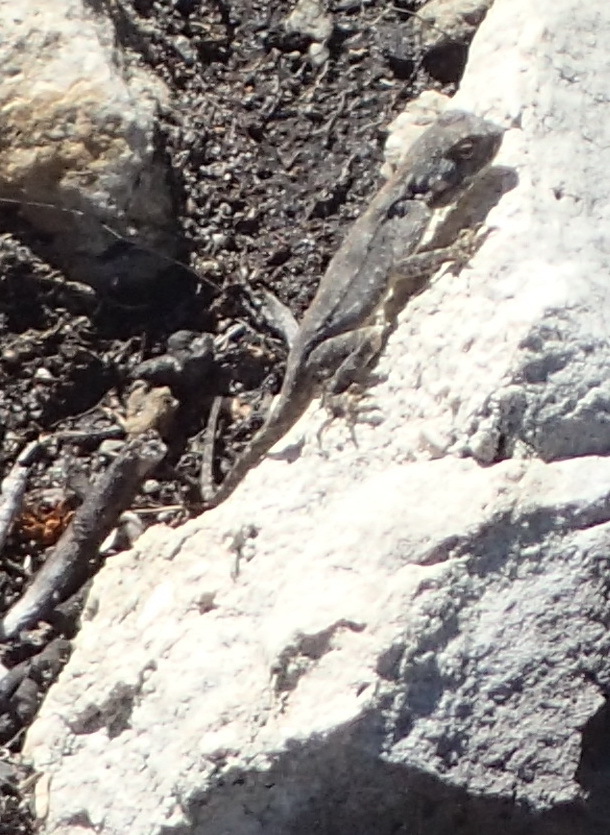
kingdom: Animalia
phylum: Chordata
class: Squamata
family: Agamidae
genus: Agama
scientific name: Agama atra
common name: Southern african rock agama
